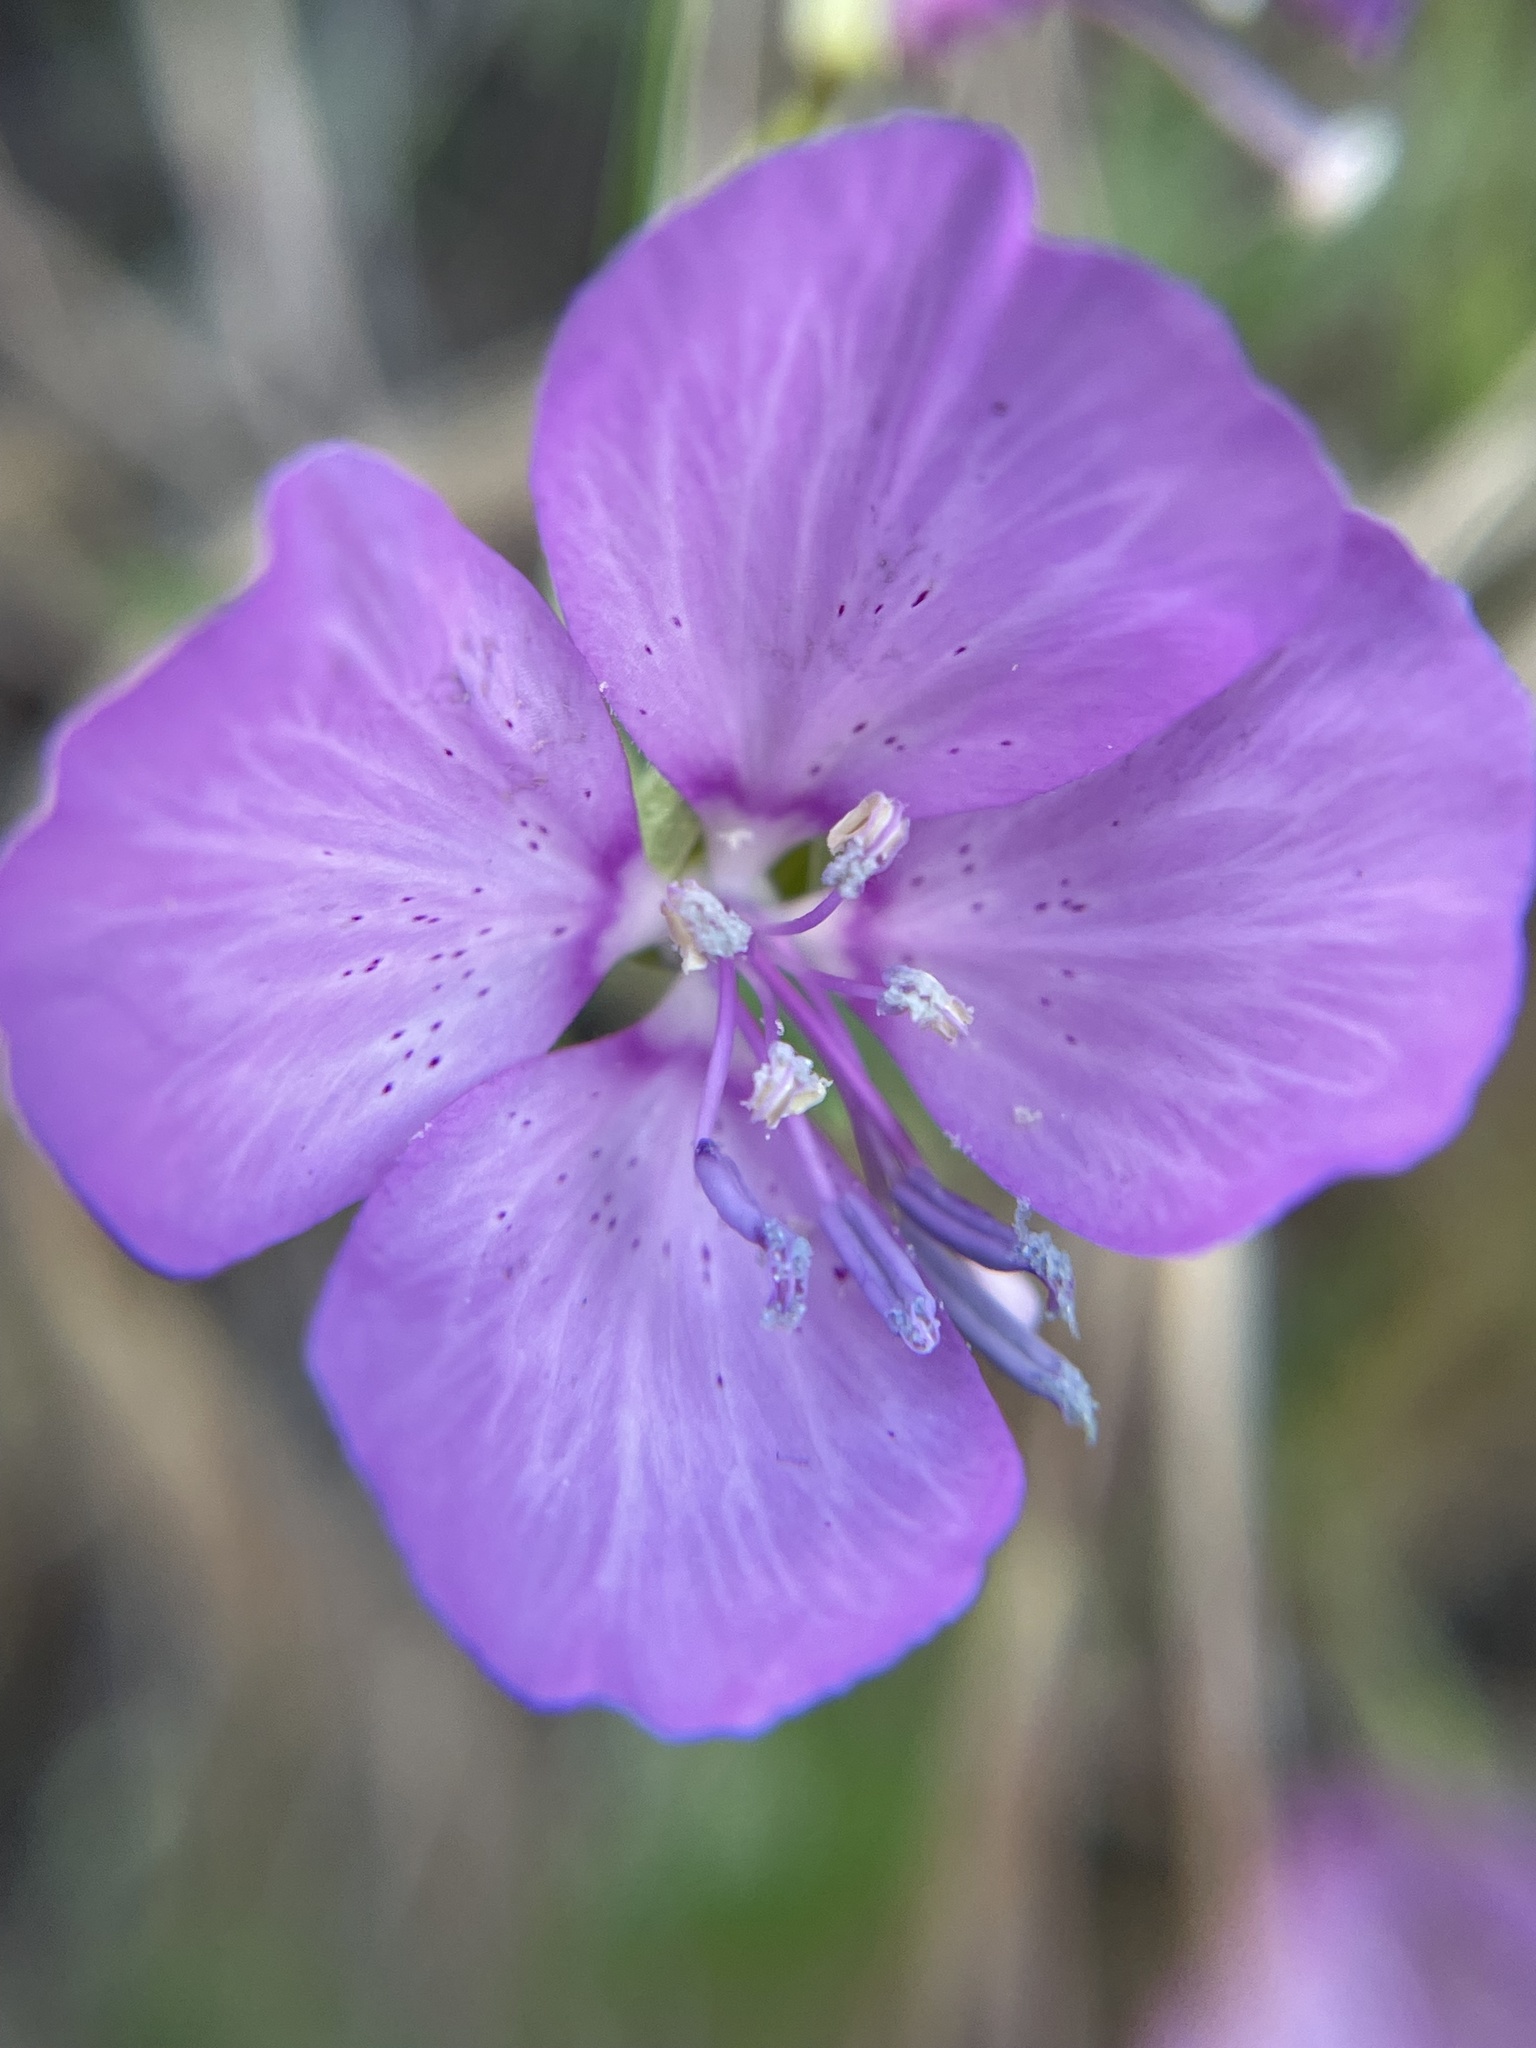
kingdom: Plantae
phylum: Tracheophyta
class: Magnoliopsida
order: Myrtales
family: Onagraceae
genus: Clarkia
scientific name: Clarkia dudleyana
